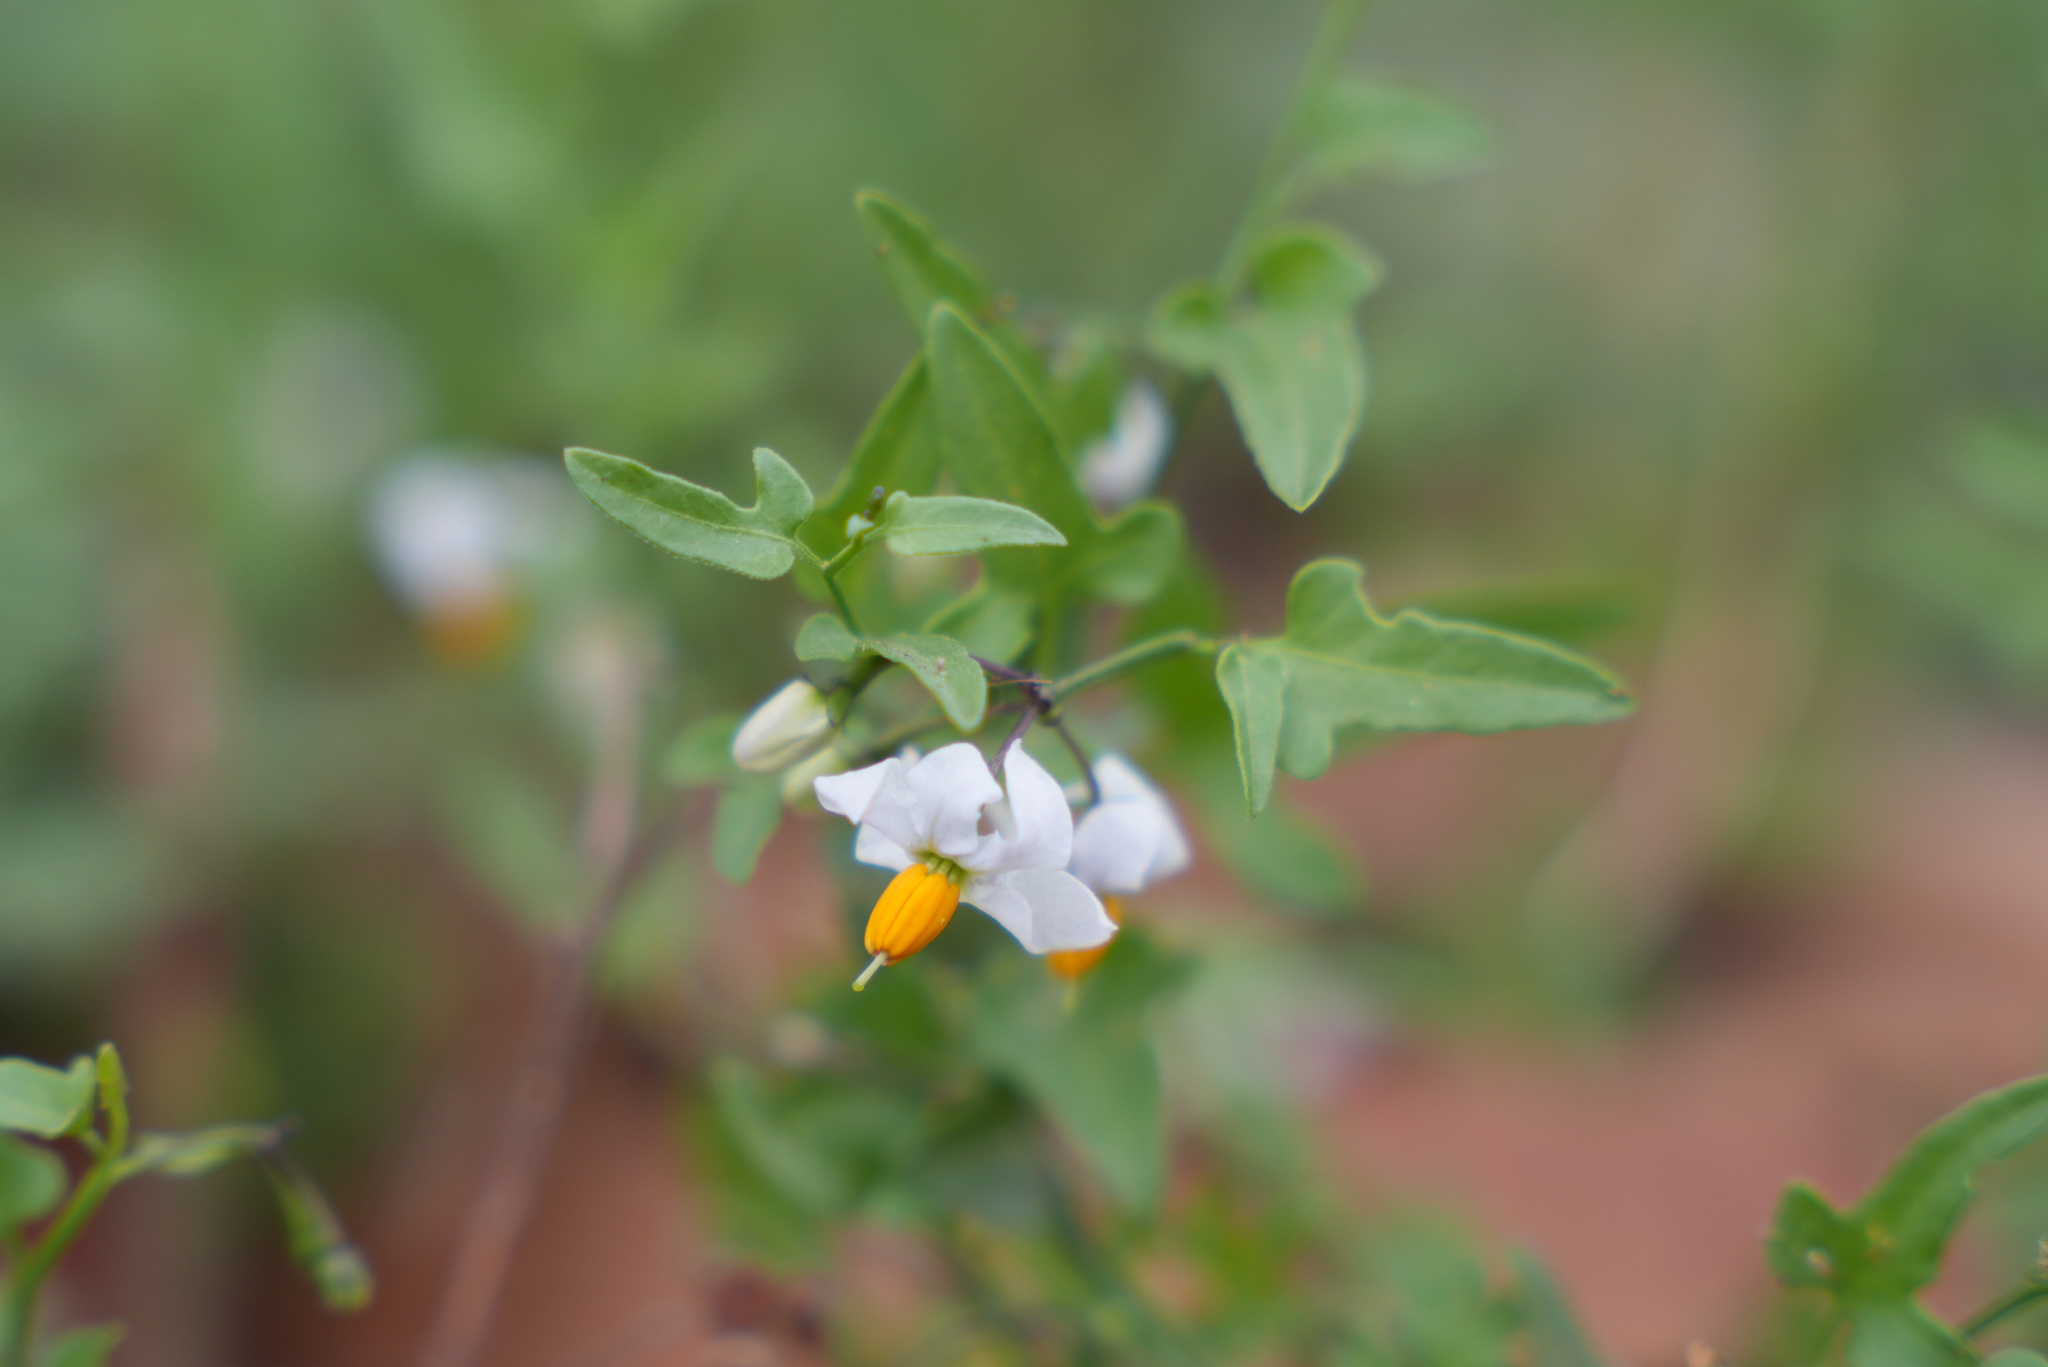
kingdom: Plantae
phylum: Tracheophyta
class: Magnoliopsida
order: Solanales
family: Solanaceae
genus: Solanum
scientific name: Solanum triquetrum
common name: Texas nightshade
